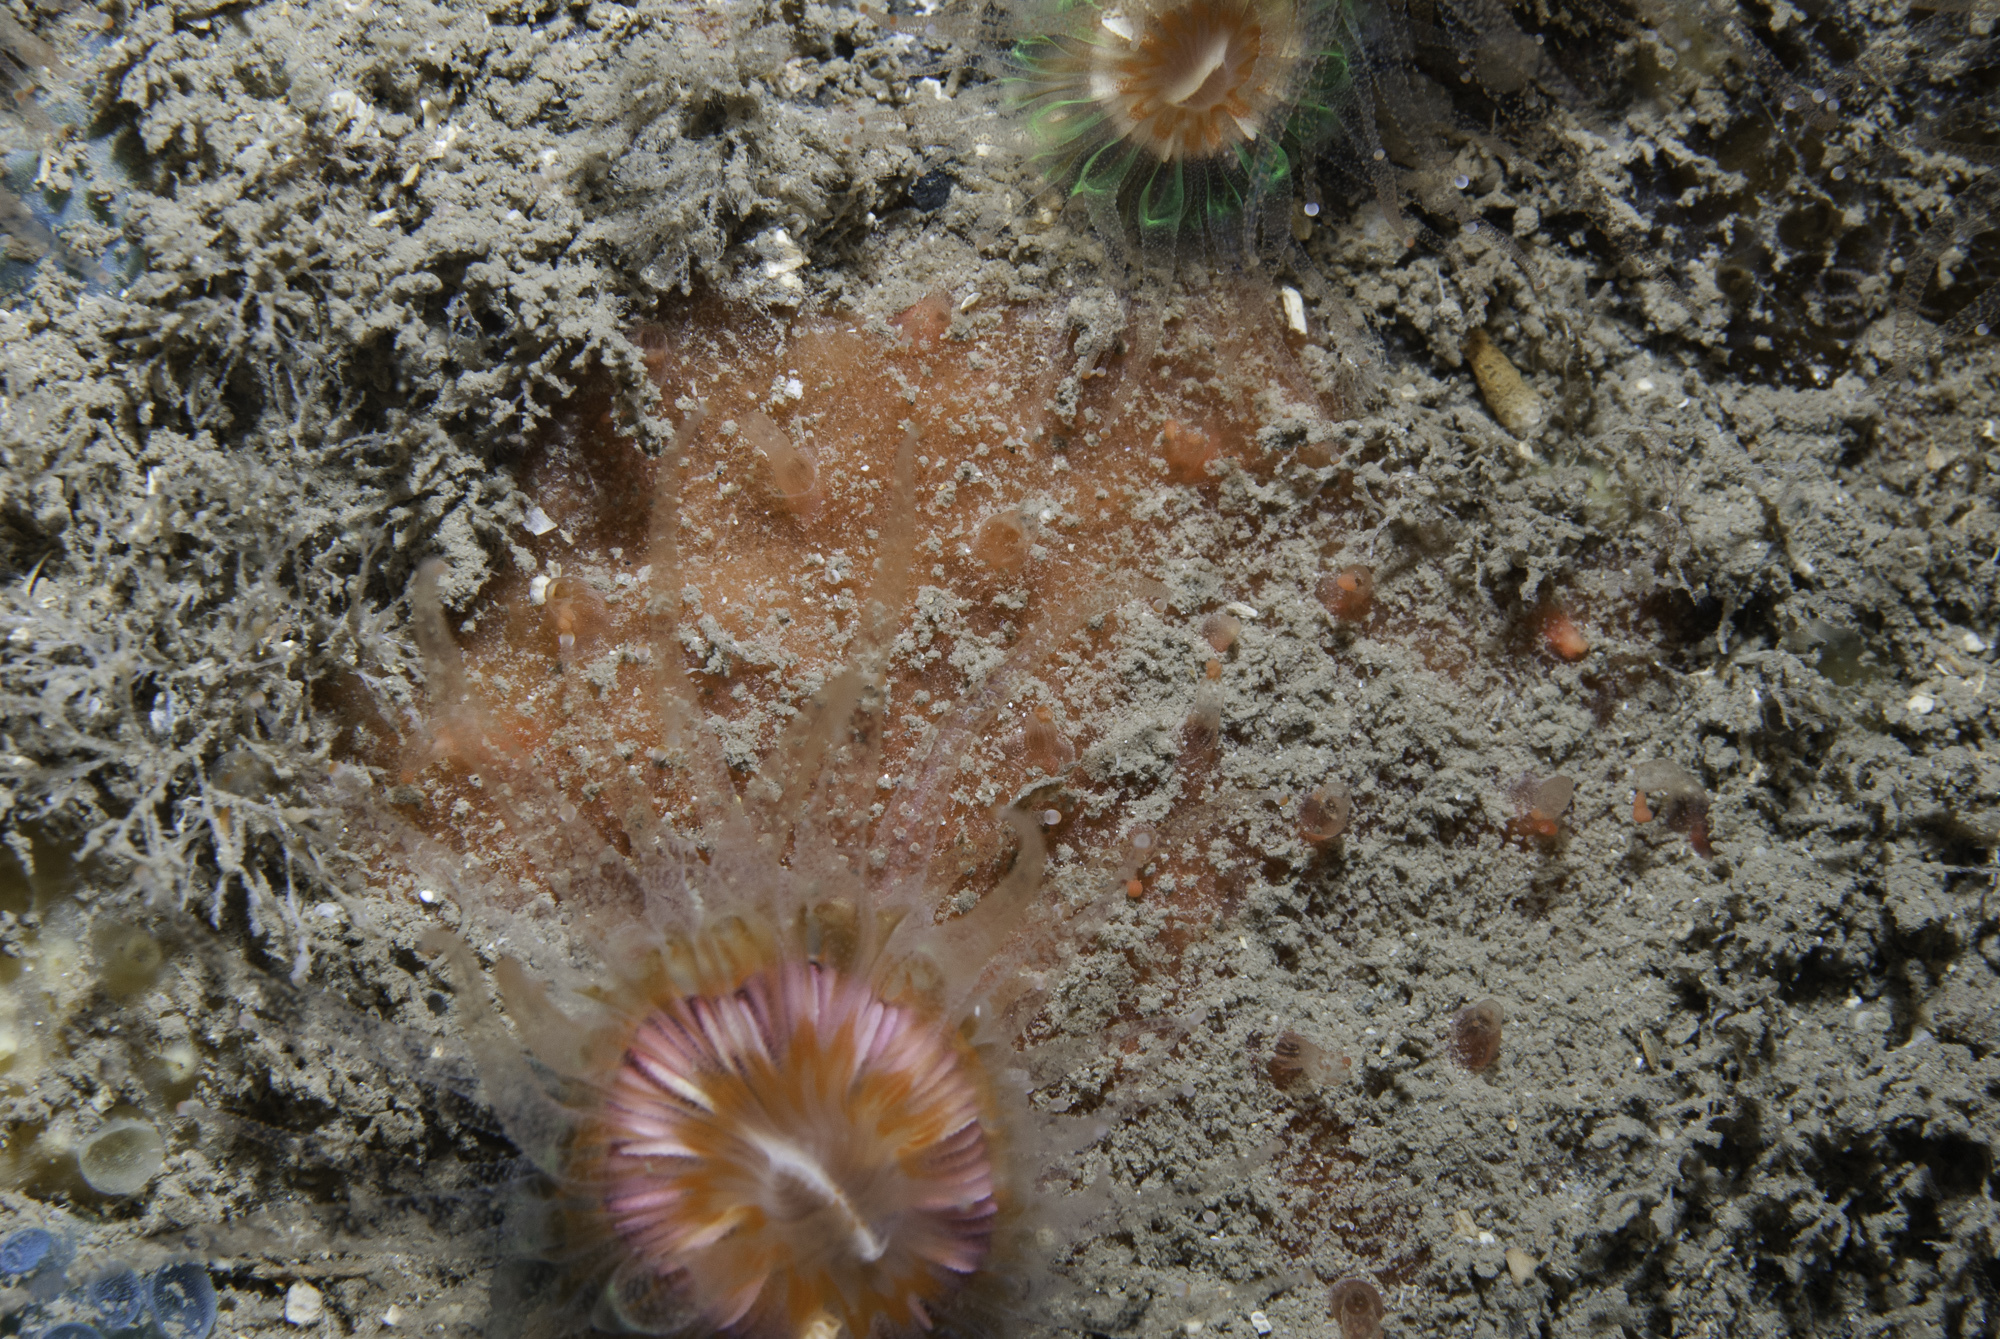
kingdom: Animalia
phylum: Porifera
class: Demospongiae
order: Axinellida
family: Raspailiidae
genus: Hymeraphia
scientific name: Hymeraphia stellifera
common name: Star horny sponge
